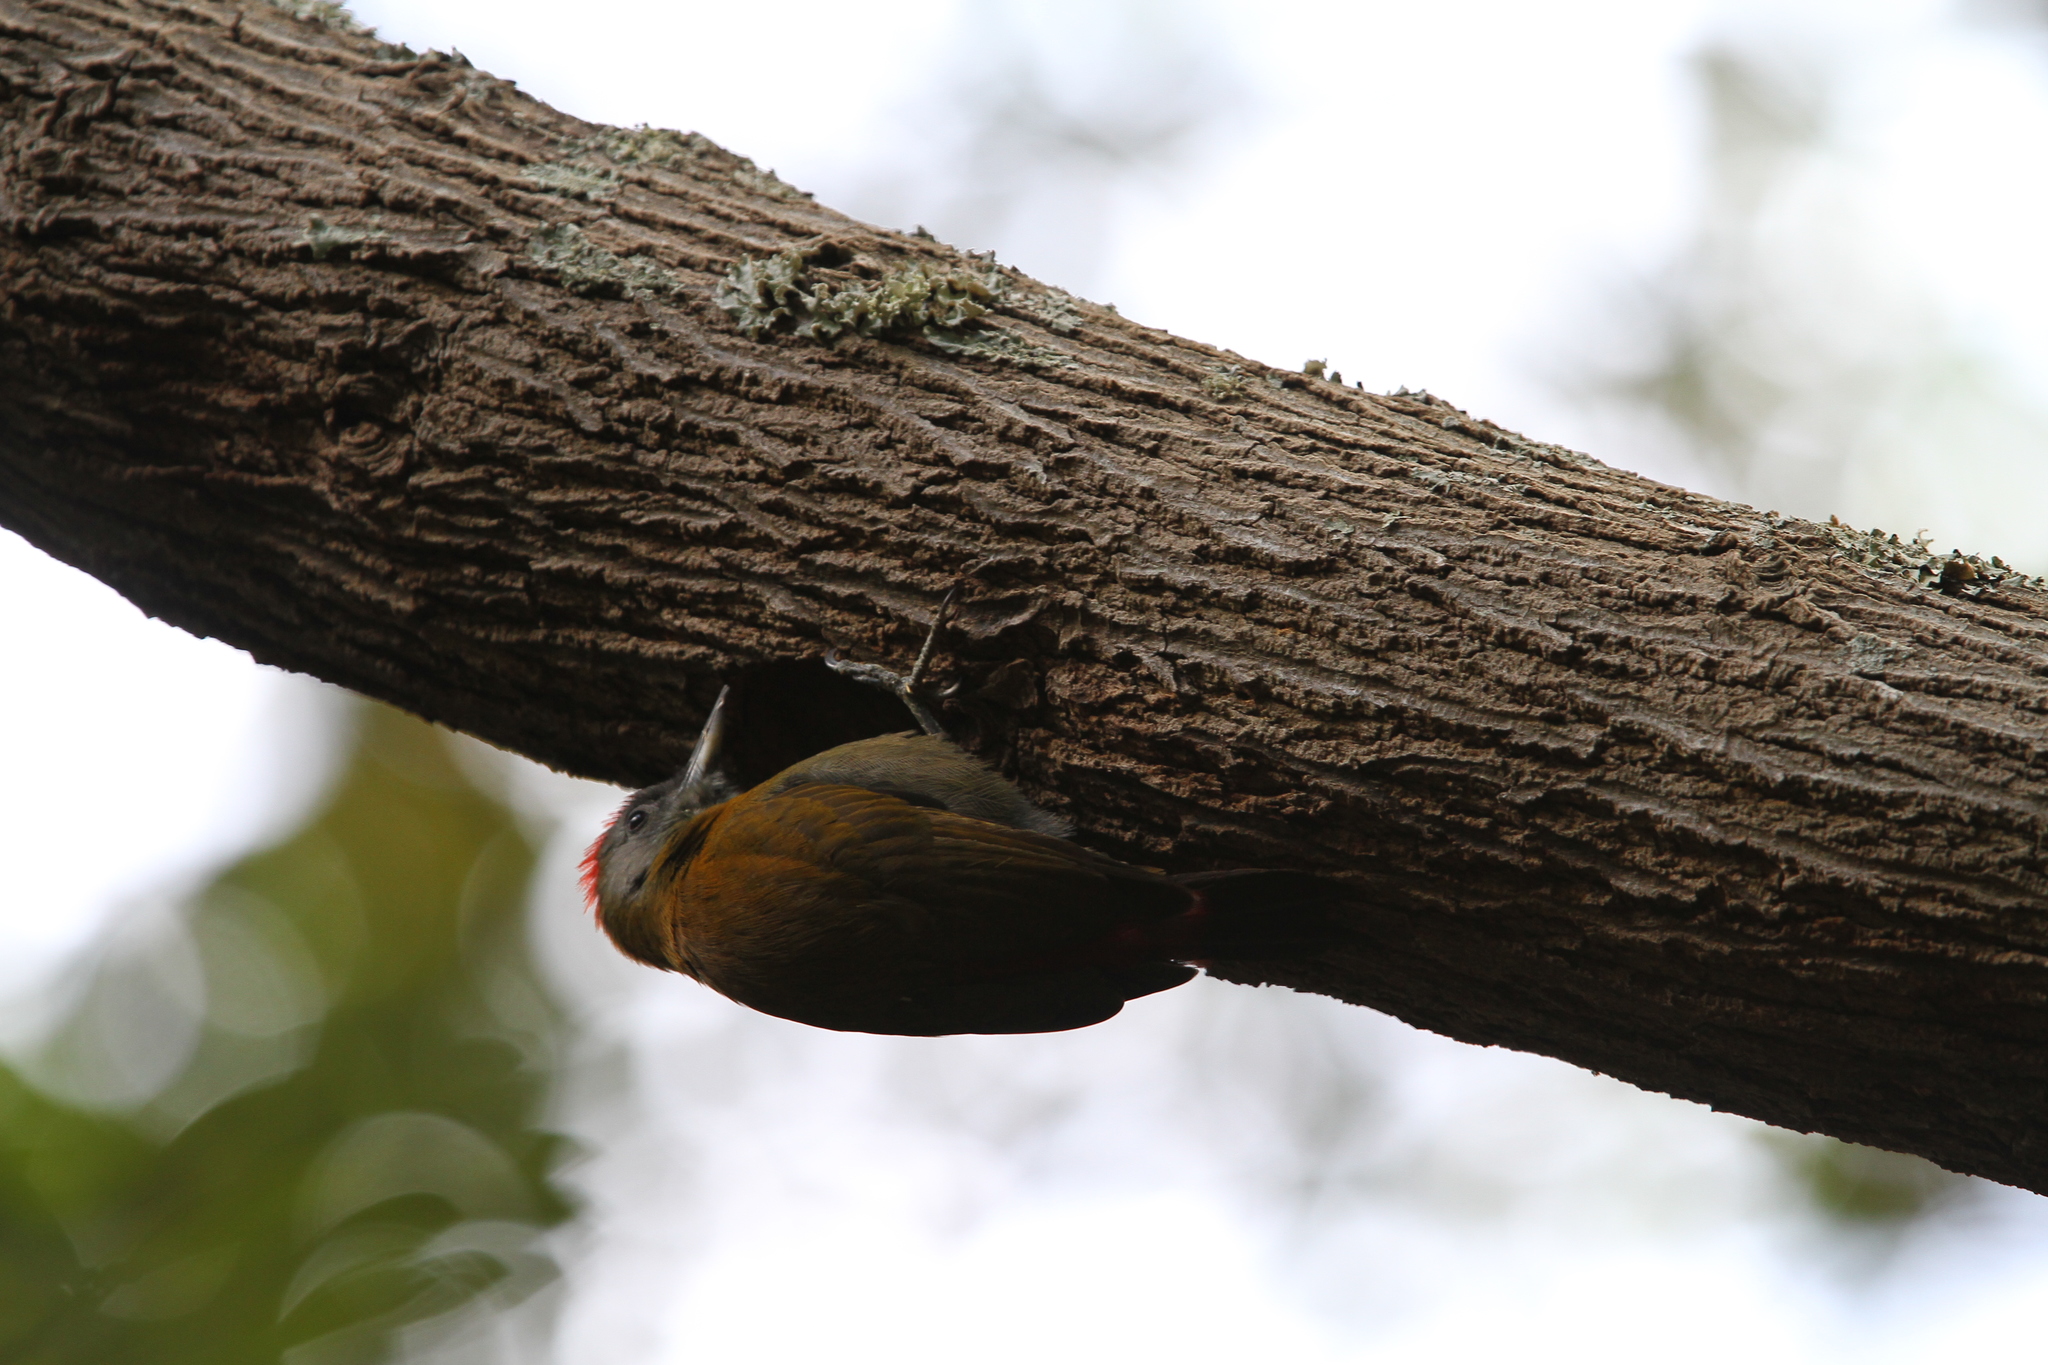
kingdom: Animalia
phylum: Chordata
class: Aves
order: Piciformes
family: Picidae
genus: Dendropicos
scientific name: Dendropicos griseocephalus
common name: Olive woodpecker
